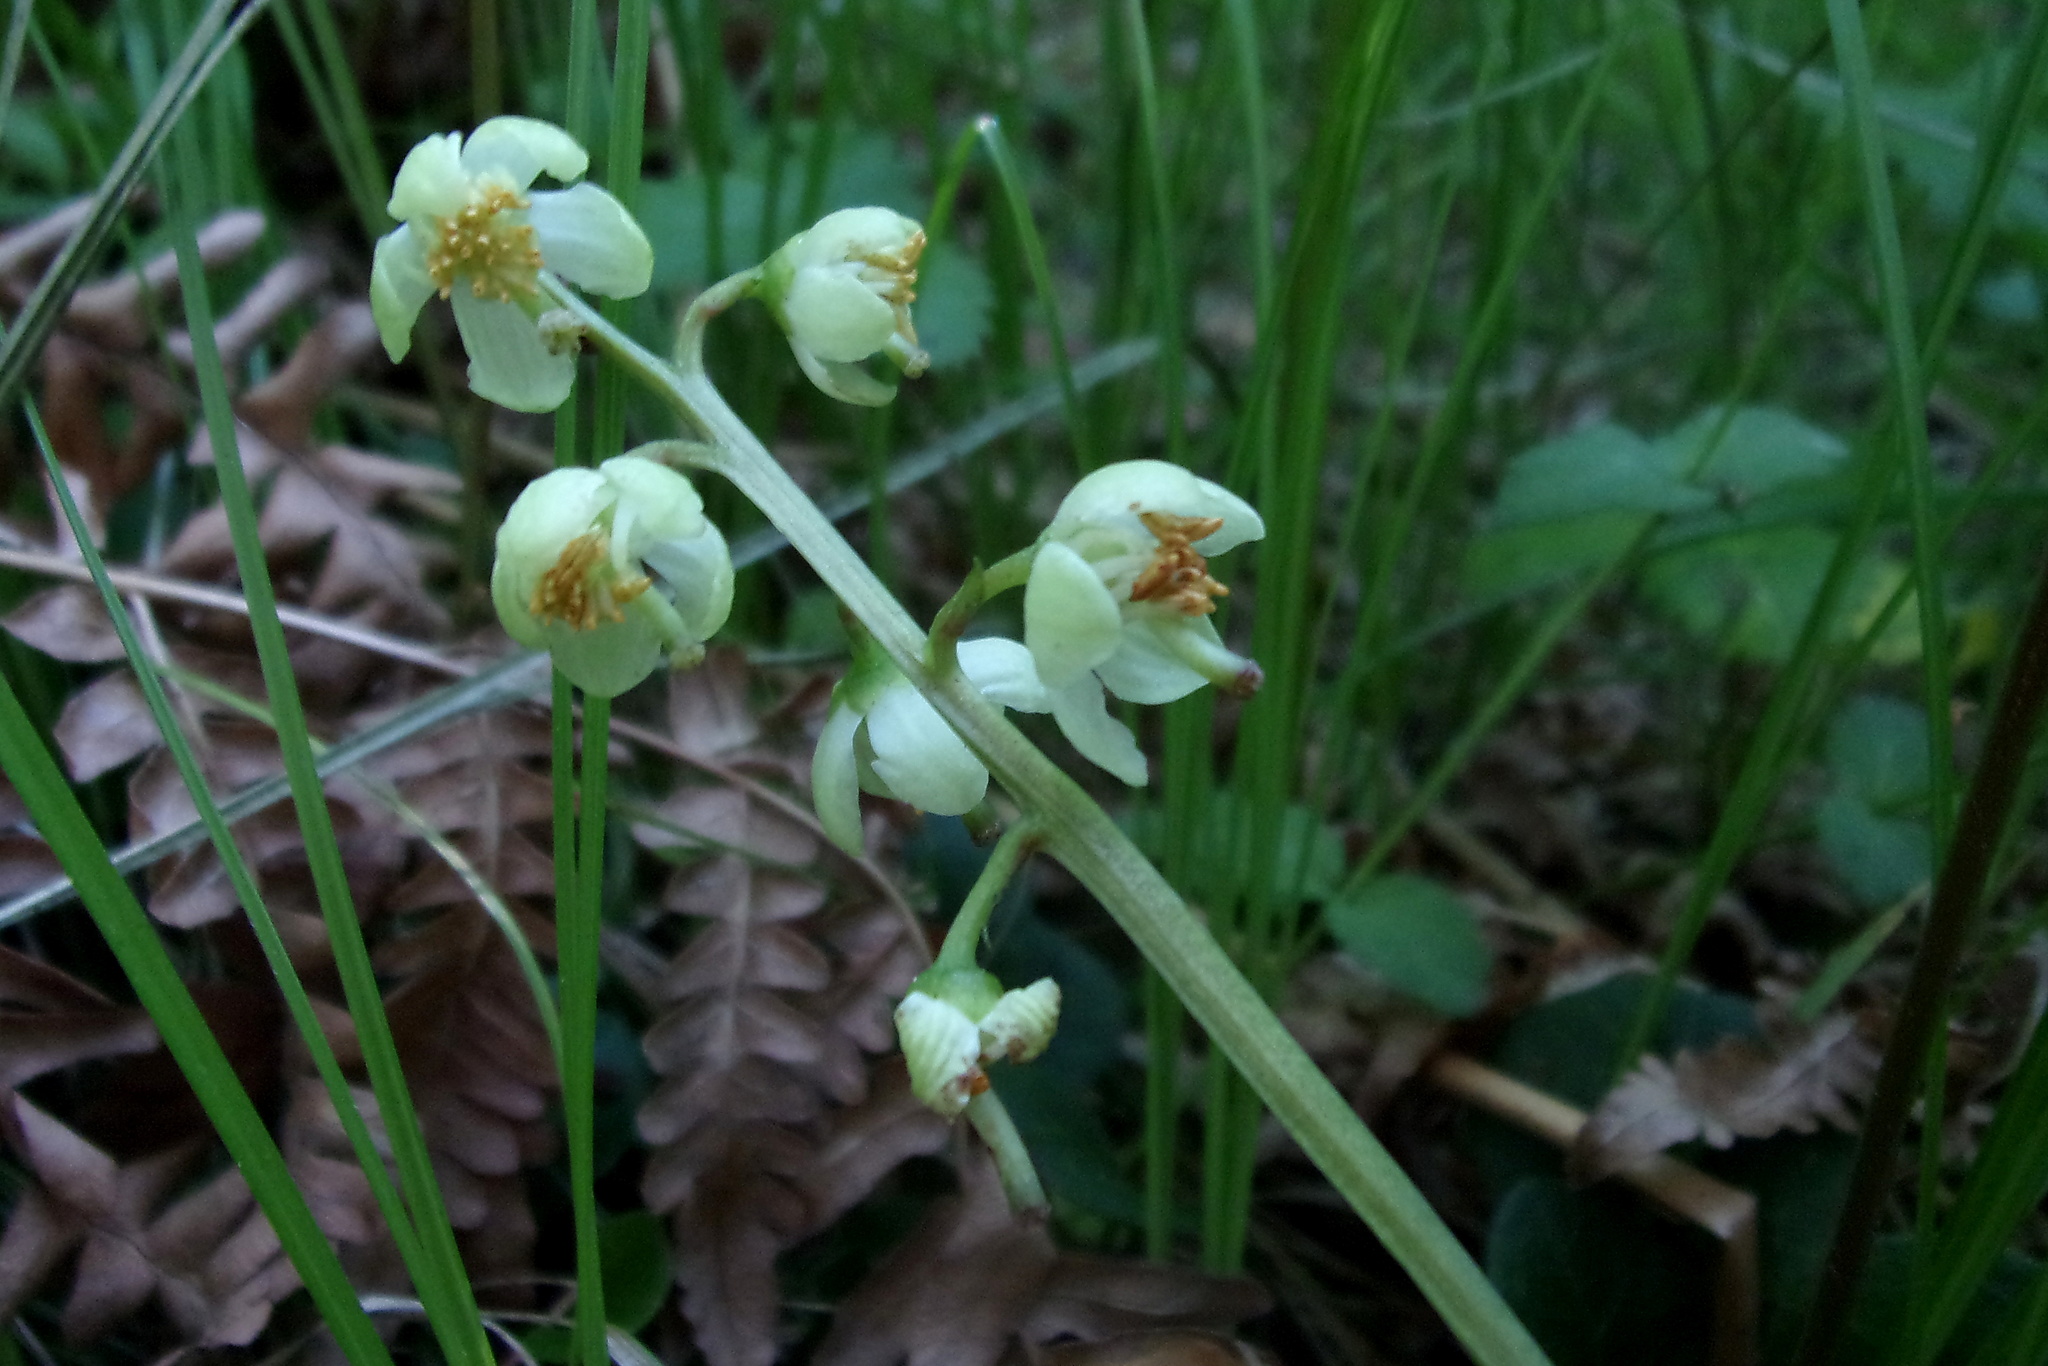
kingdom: Plantae
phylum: Tracheophyta
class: Magnoliopsida
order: Ericales
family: Ericaceae
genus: Pyrola
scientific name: Pyrola chlorantha
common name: Green wintergreen
